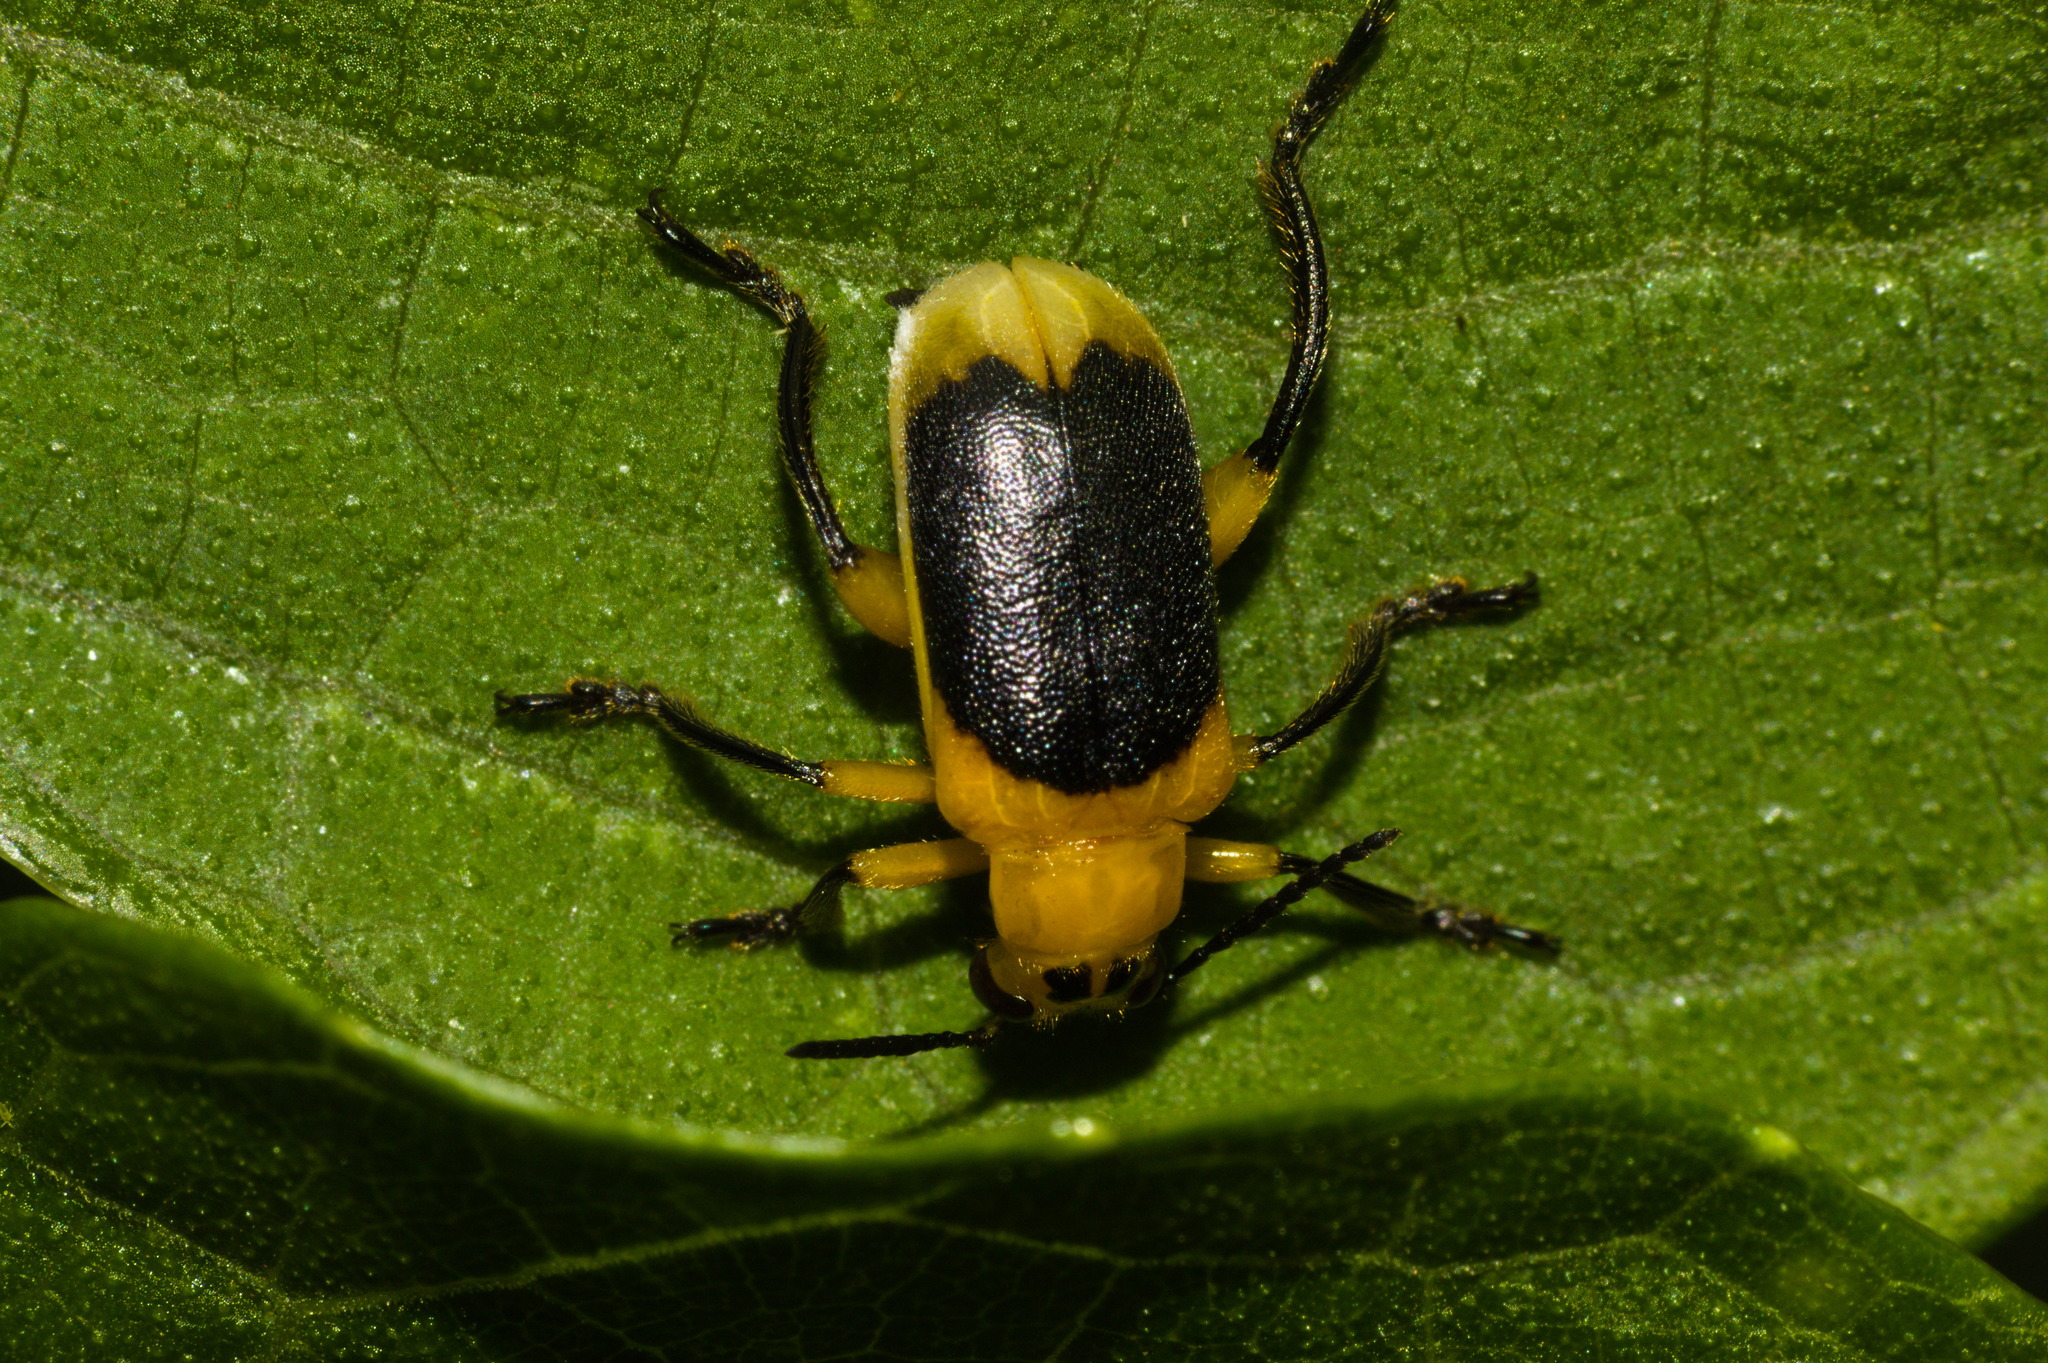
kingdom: Animalia
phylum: Arthropoda
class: Insecta
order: Coleoptera
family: Megalopodidae
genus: Agathomerus
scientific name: Agathomerus sellatus
